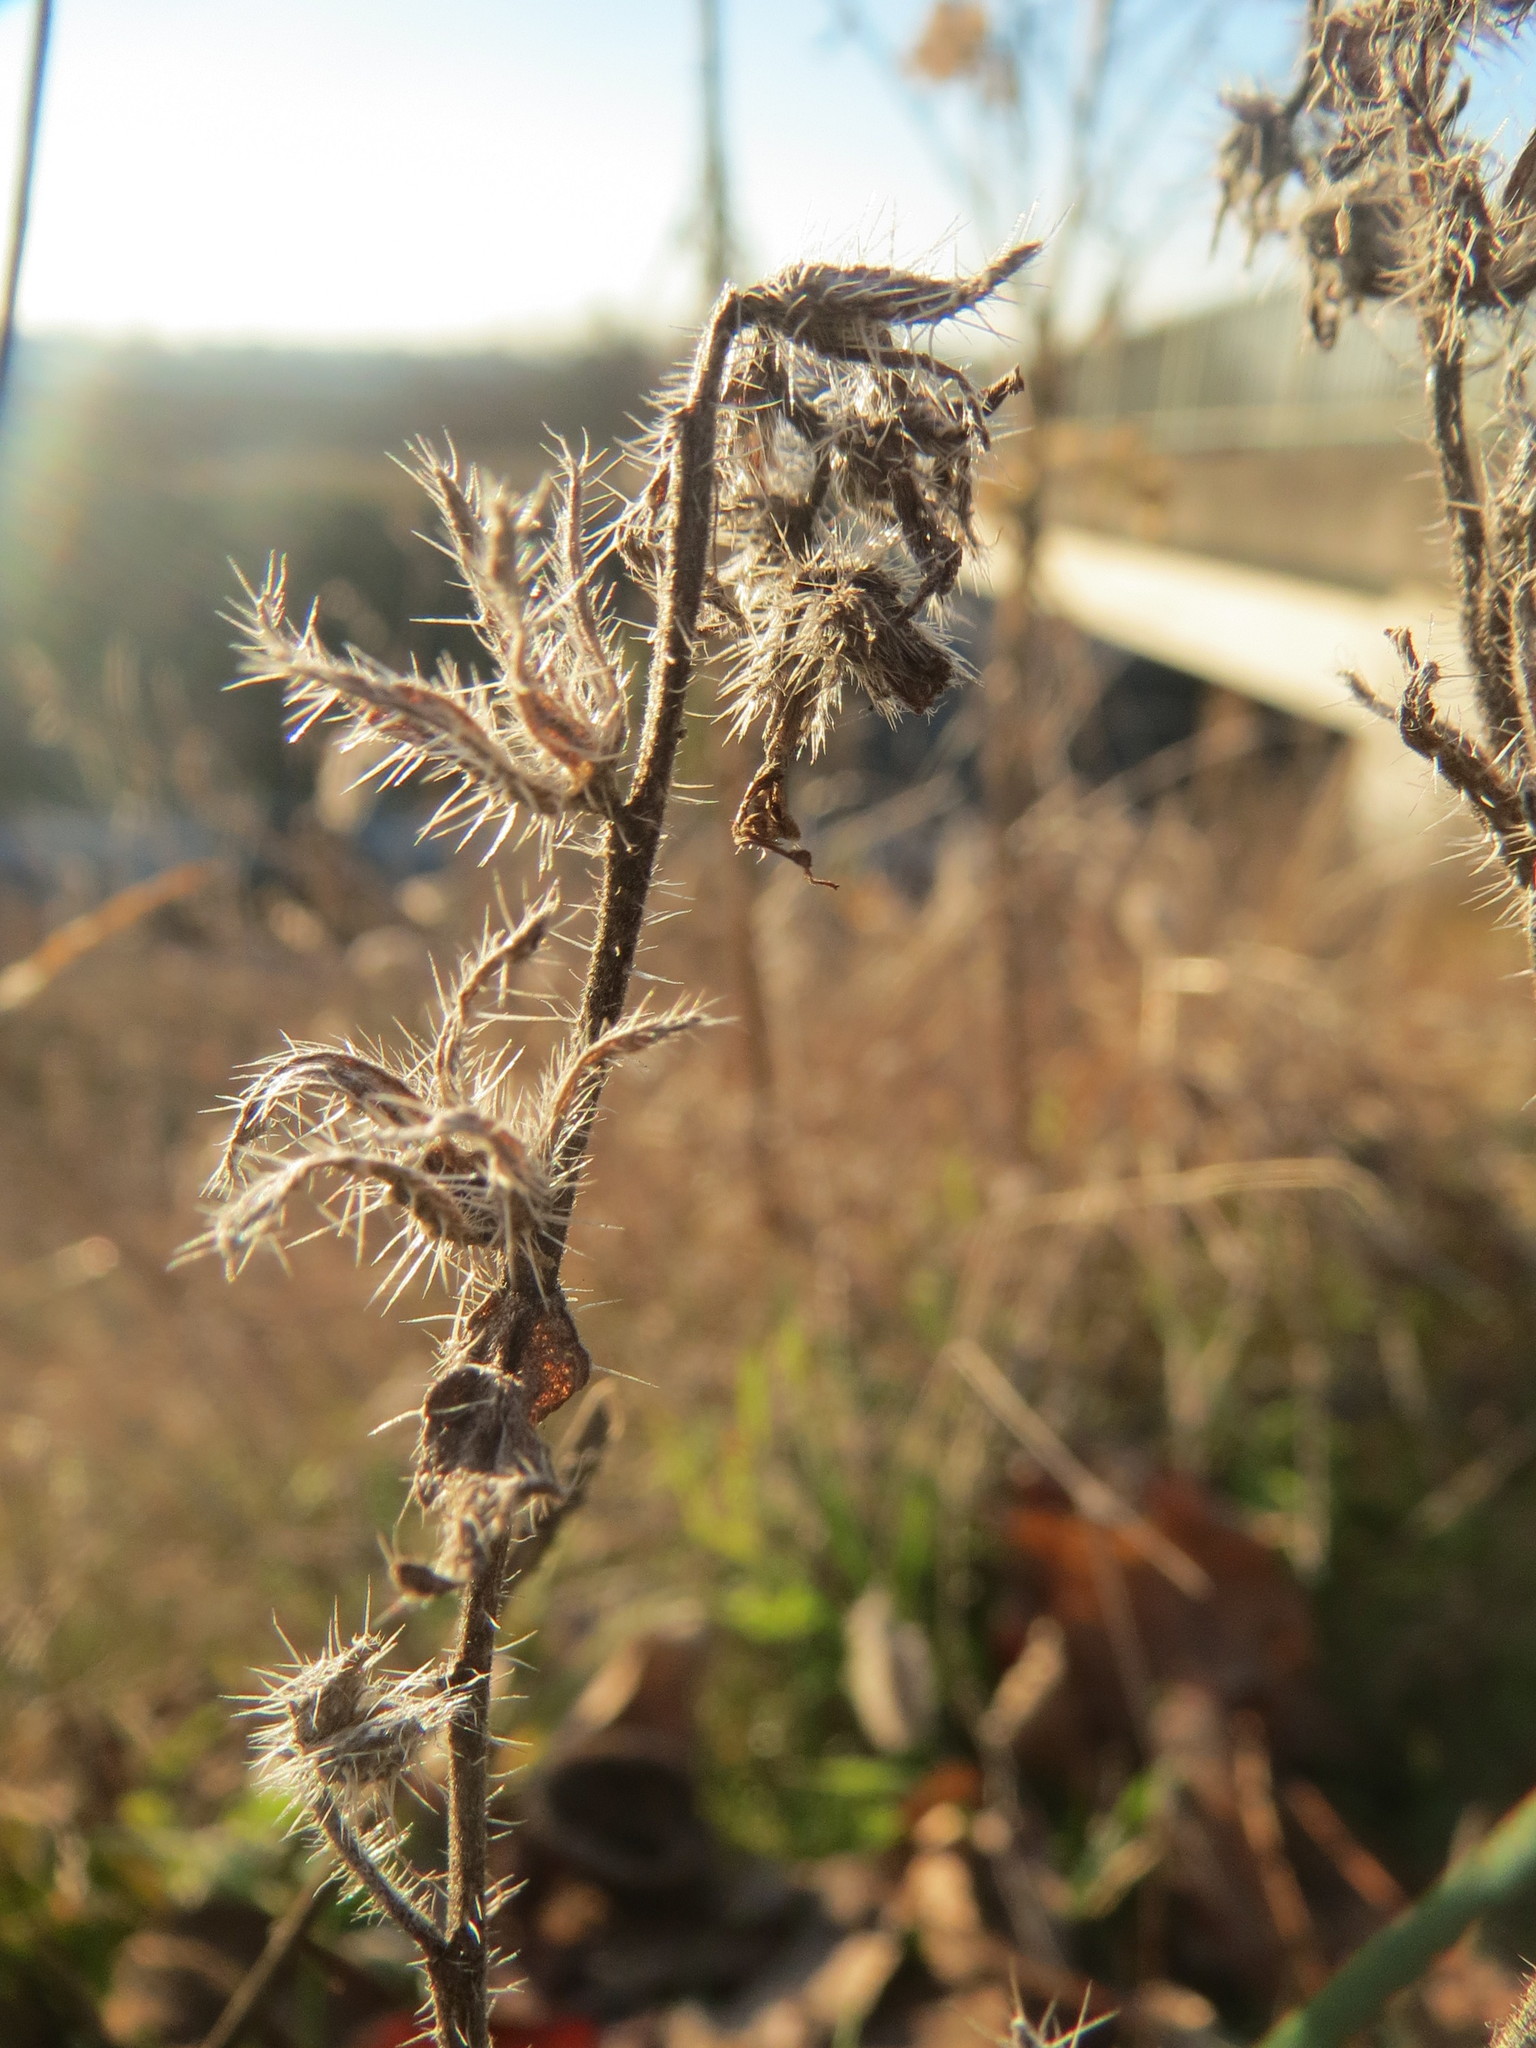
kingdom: Plantae
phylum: Tracheophyta
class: Magnoliopsida
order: Boraginales
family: Boraginaceae
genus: Echium
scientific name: Echium vulgare
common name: Common viper's bugloss
